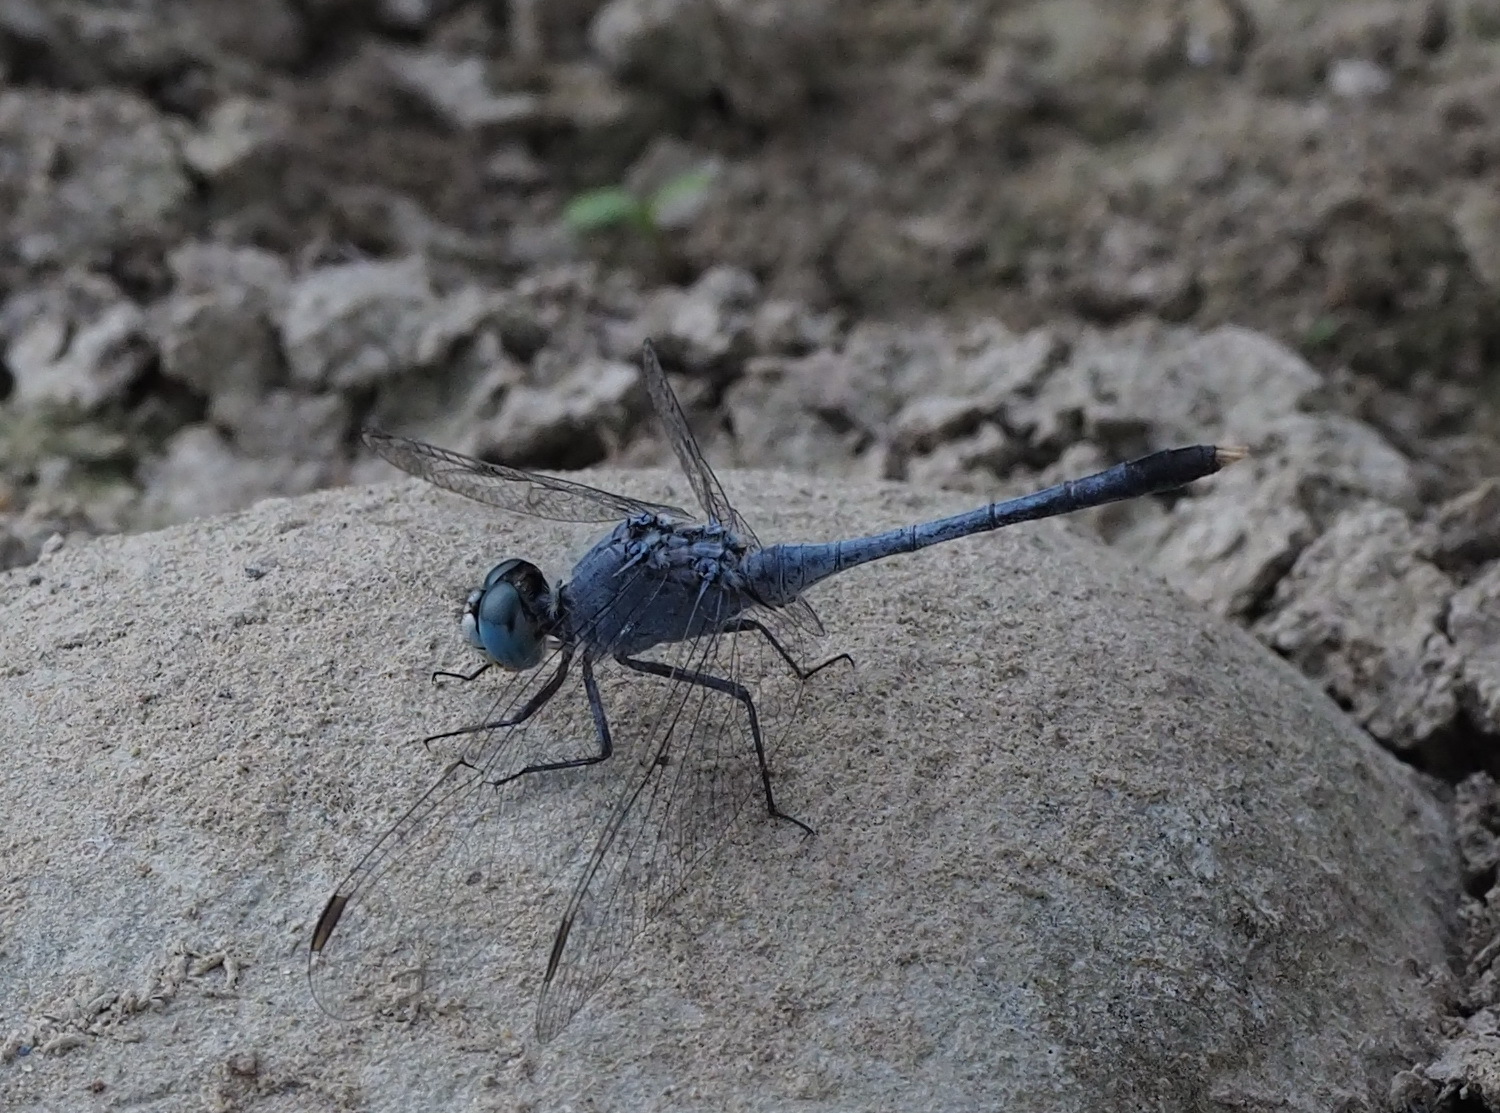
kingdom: Animalia
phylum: Arthropoda
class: Insecta
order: Odonata
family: Libellulidae
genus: Diplacodes
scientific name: Diplacodes trivialis
